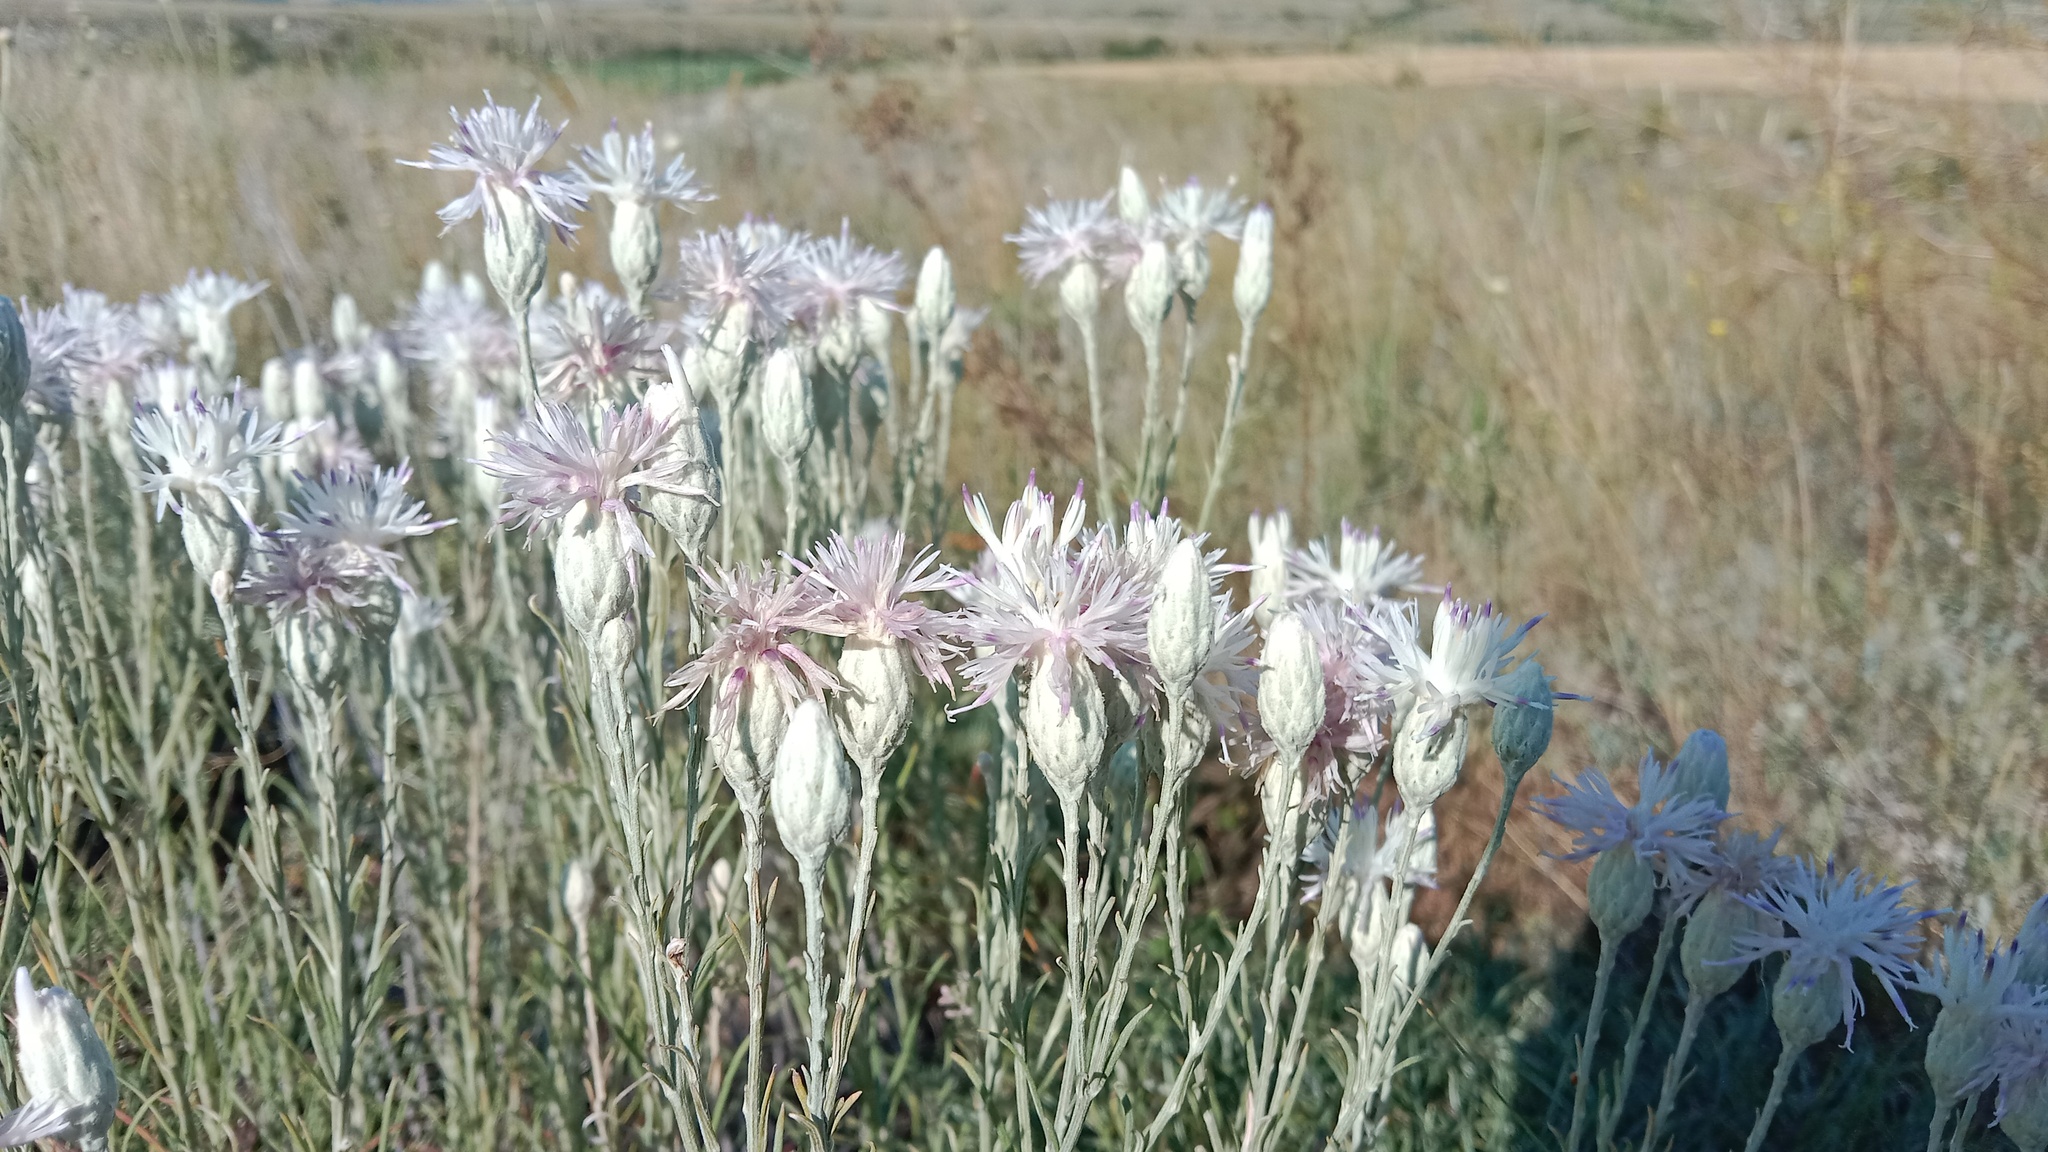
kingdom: Plantae
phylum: Tracheophyta
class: Magnoliopsida
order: Asterales
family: Asteraceae
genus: Jurinea
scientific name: Jurinea stoechadifolia
